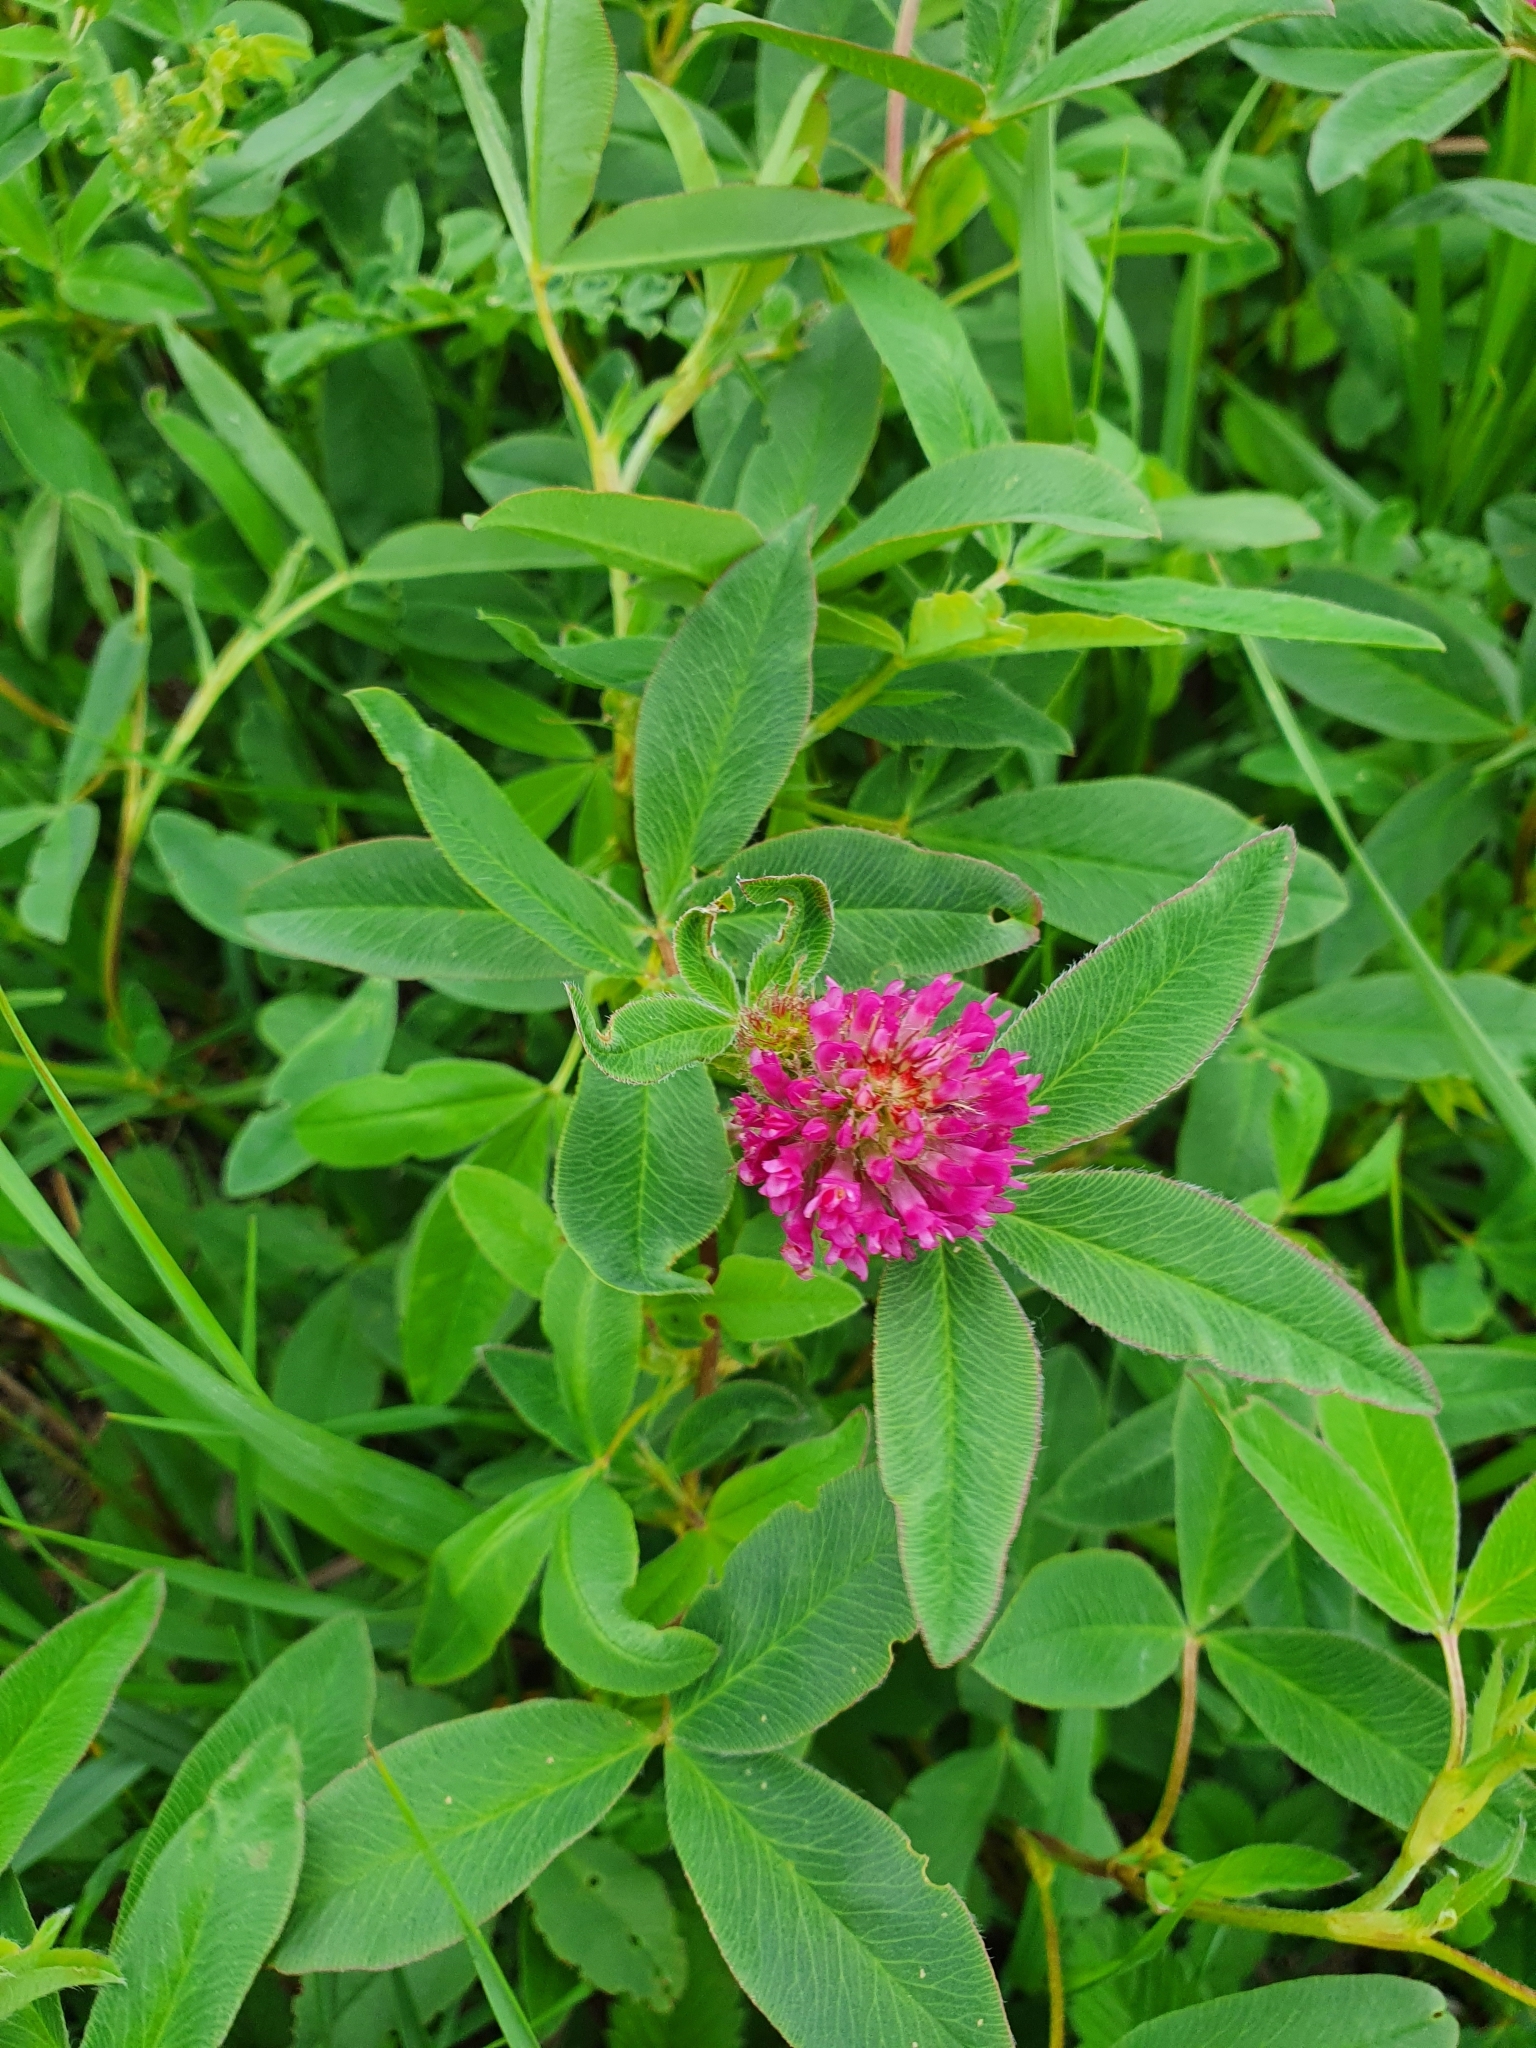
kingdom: Plantae
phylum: Tracheophyta
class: Magnoliopsida
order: Fabales
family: Fabaceae
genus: Trifolium
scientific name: Trifolium medium
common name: Zigzag clover
